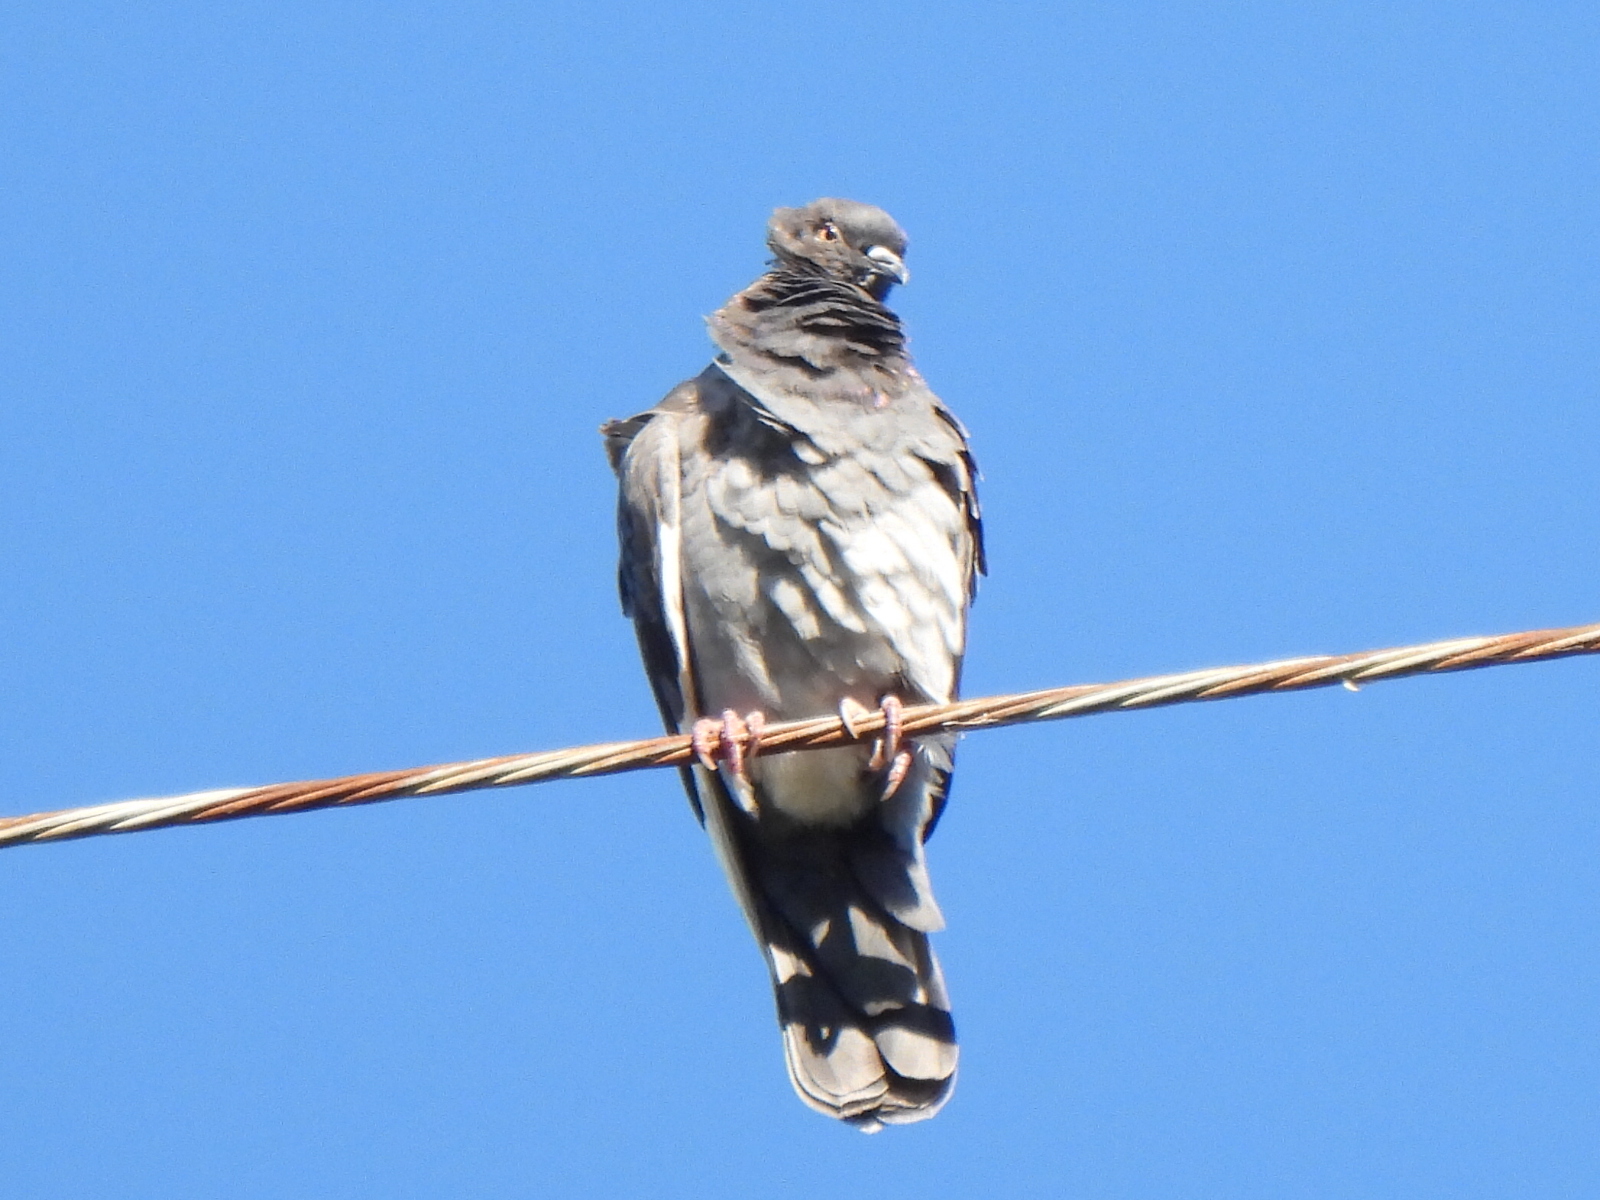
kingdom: Animalia
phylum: Chordata
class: Aves
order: Columbiformes
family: Columbidae
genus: Columba
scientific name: Columba livia
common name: Rock pigeon
